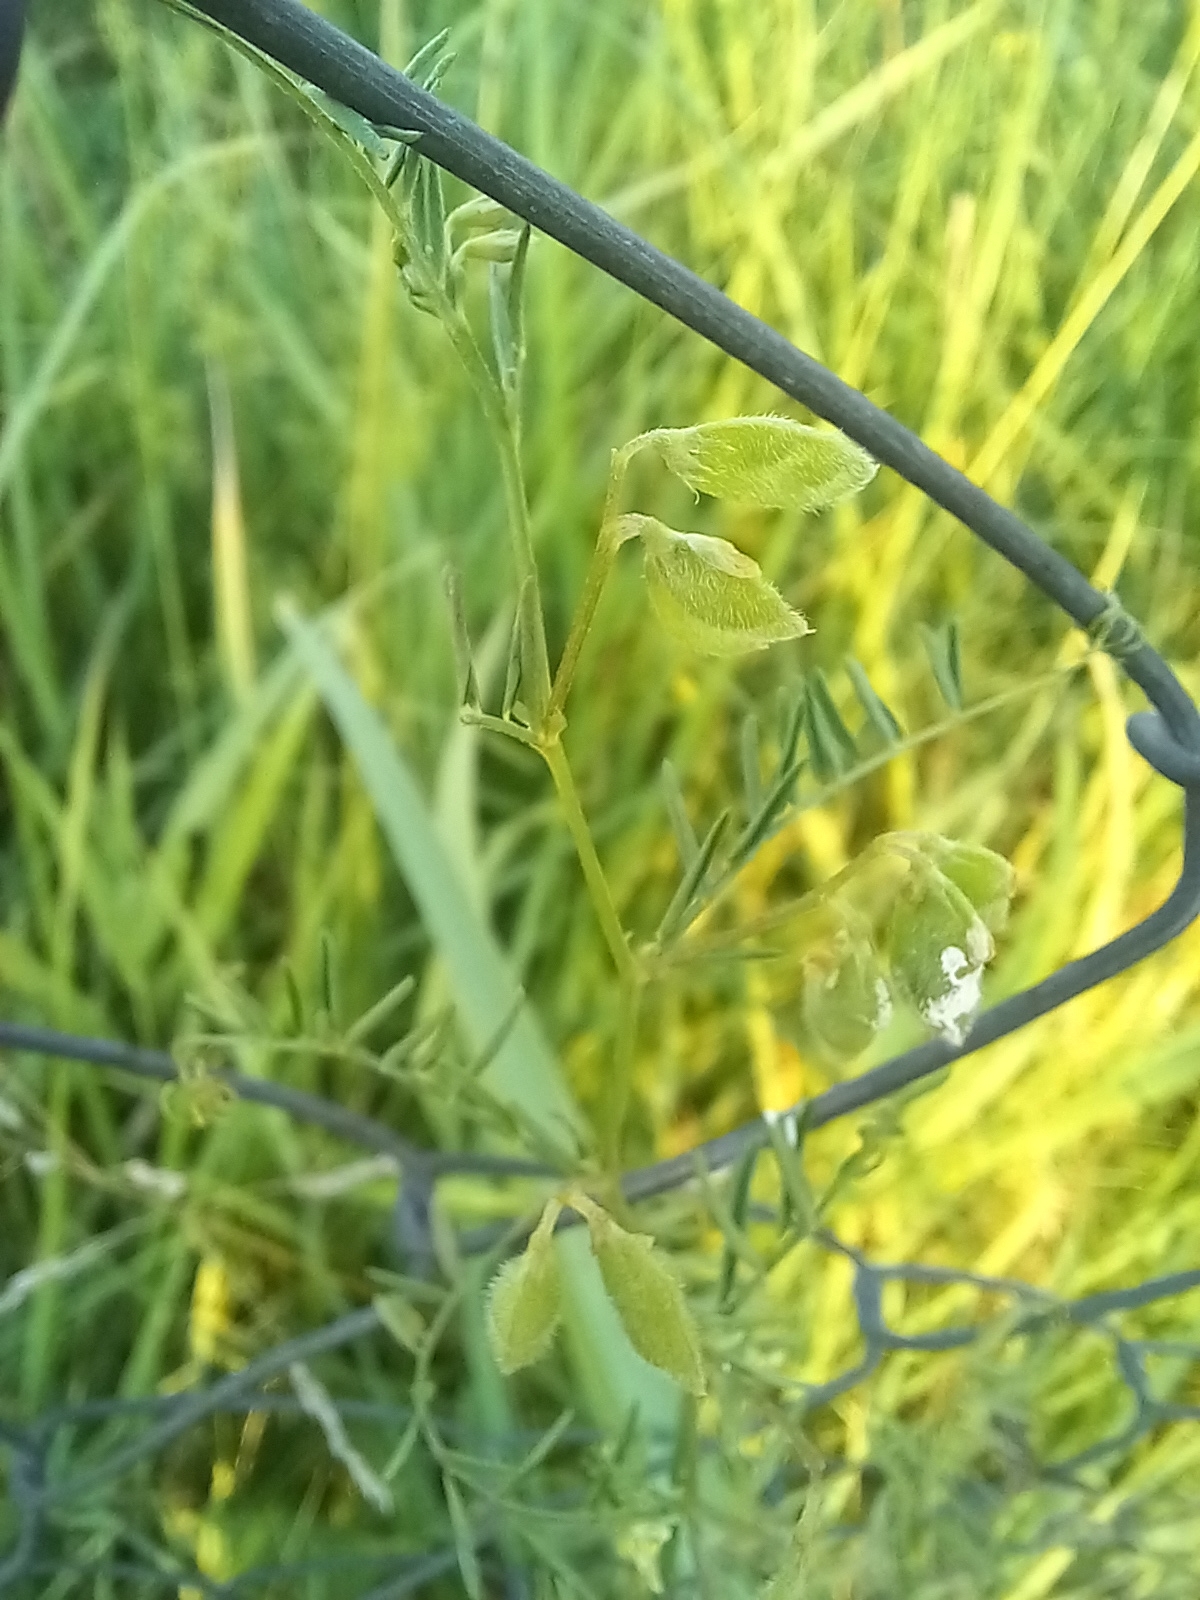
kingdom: Plantae
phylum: Tracheophyta
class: Magnoliopsida
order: Fabales
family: Fabaceae
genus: Vicia
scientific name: Vicia hirsuta
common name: Tiny vetch
